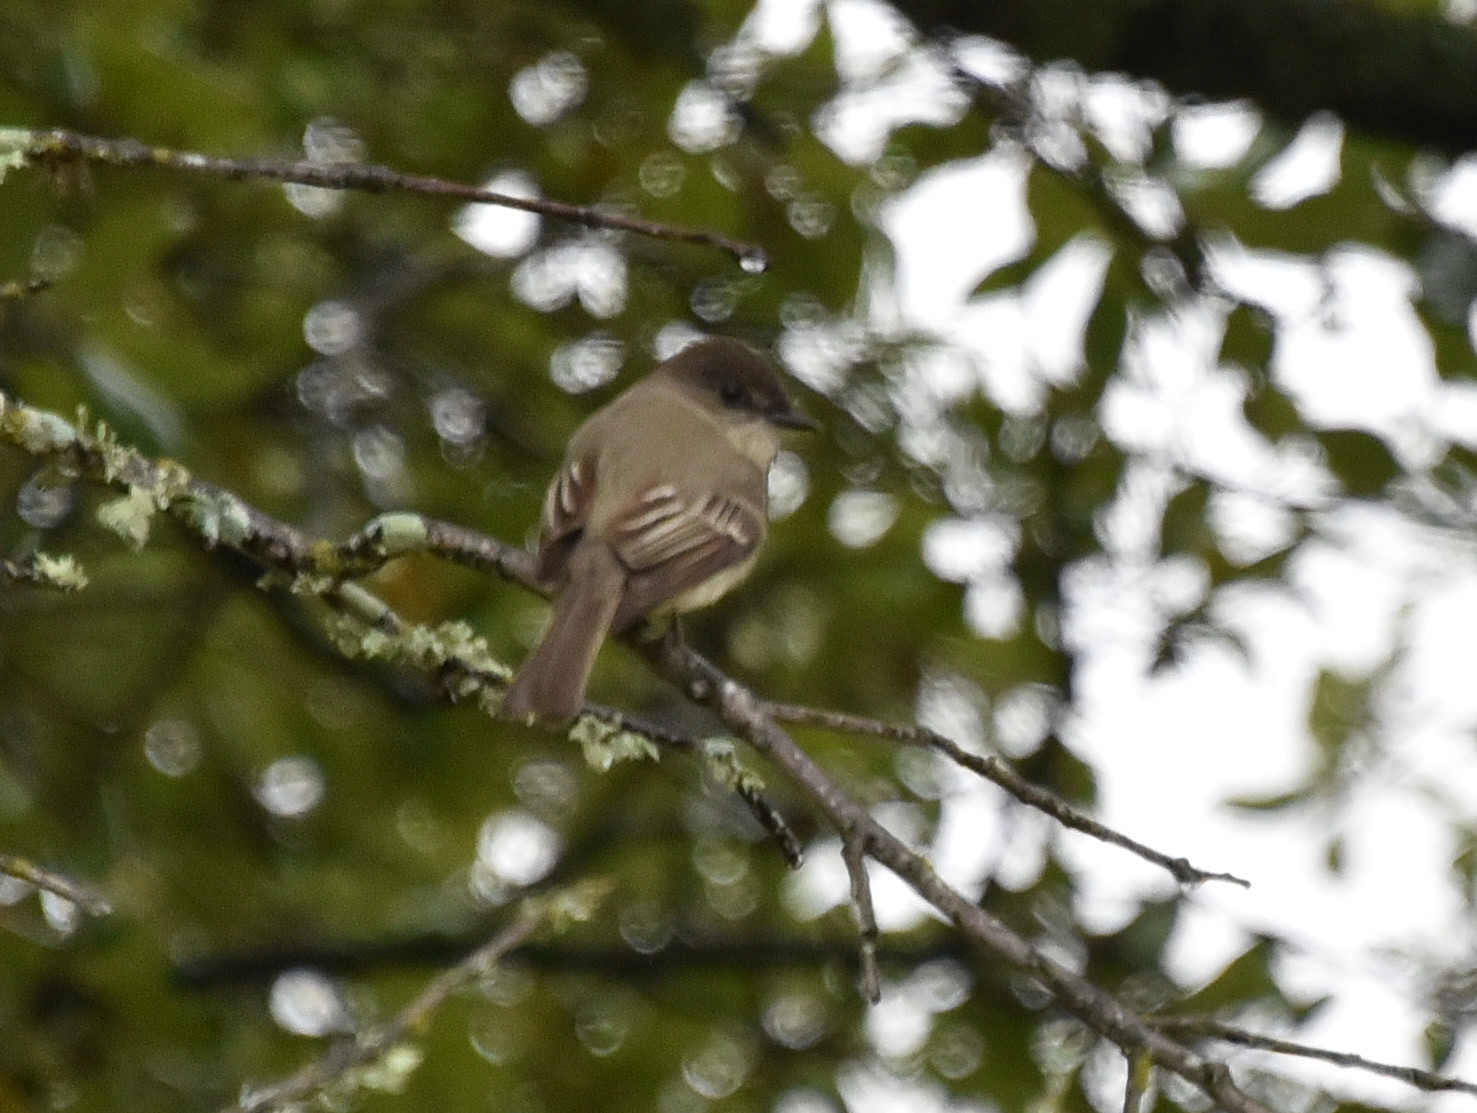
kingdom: Animalia
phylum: Chordata
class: Aves
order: Passeriformes
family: Tyrannidae
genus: Sayornis
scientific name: Sayornis phoebe
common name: Eastern phoebe
